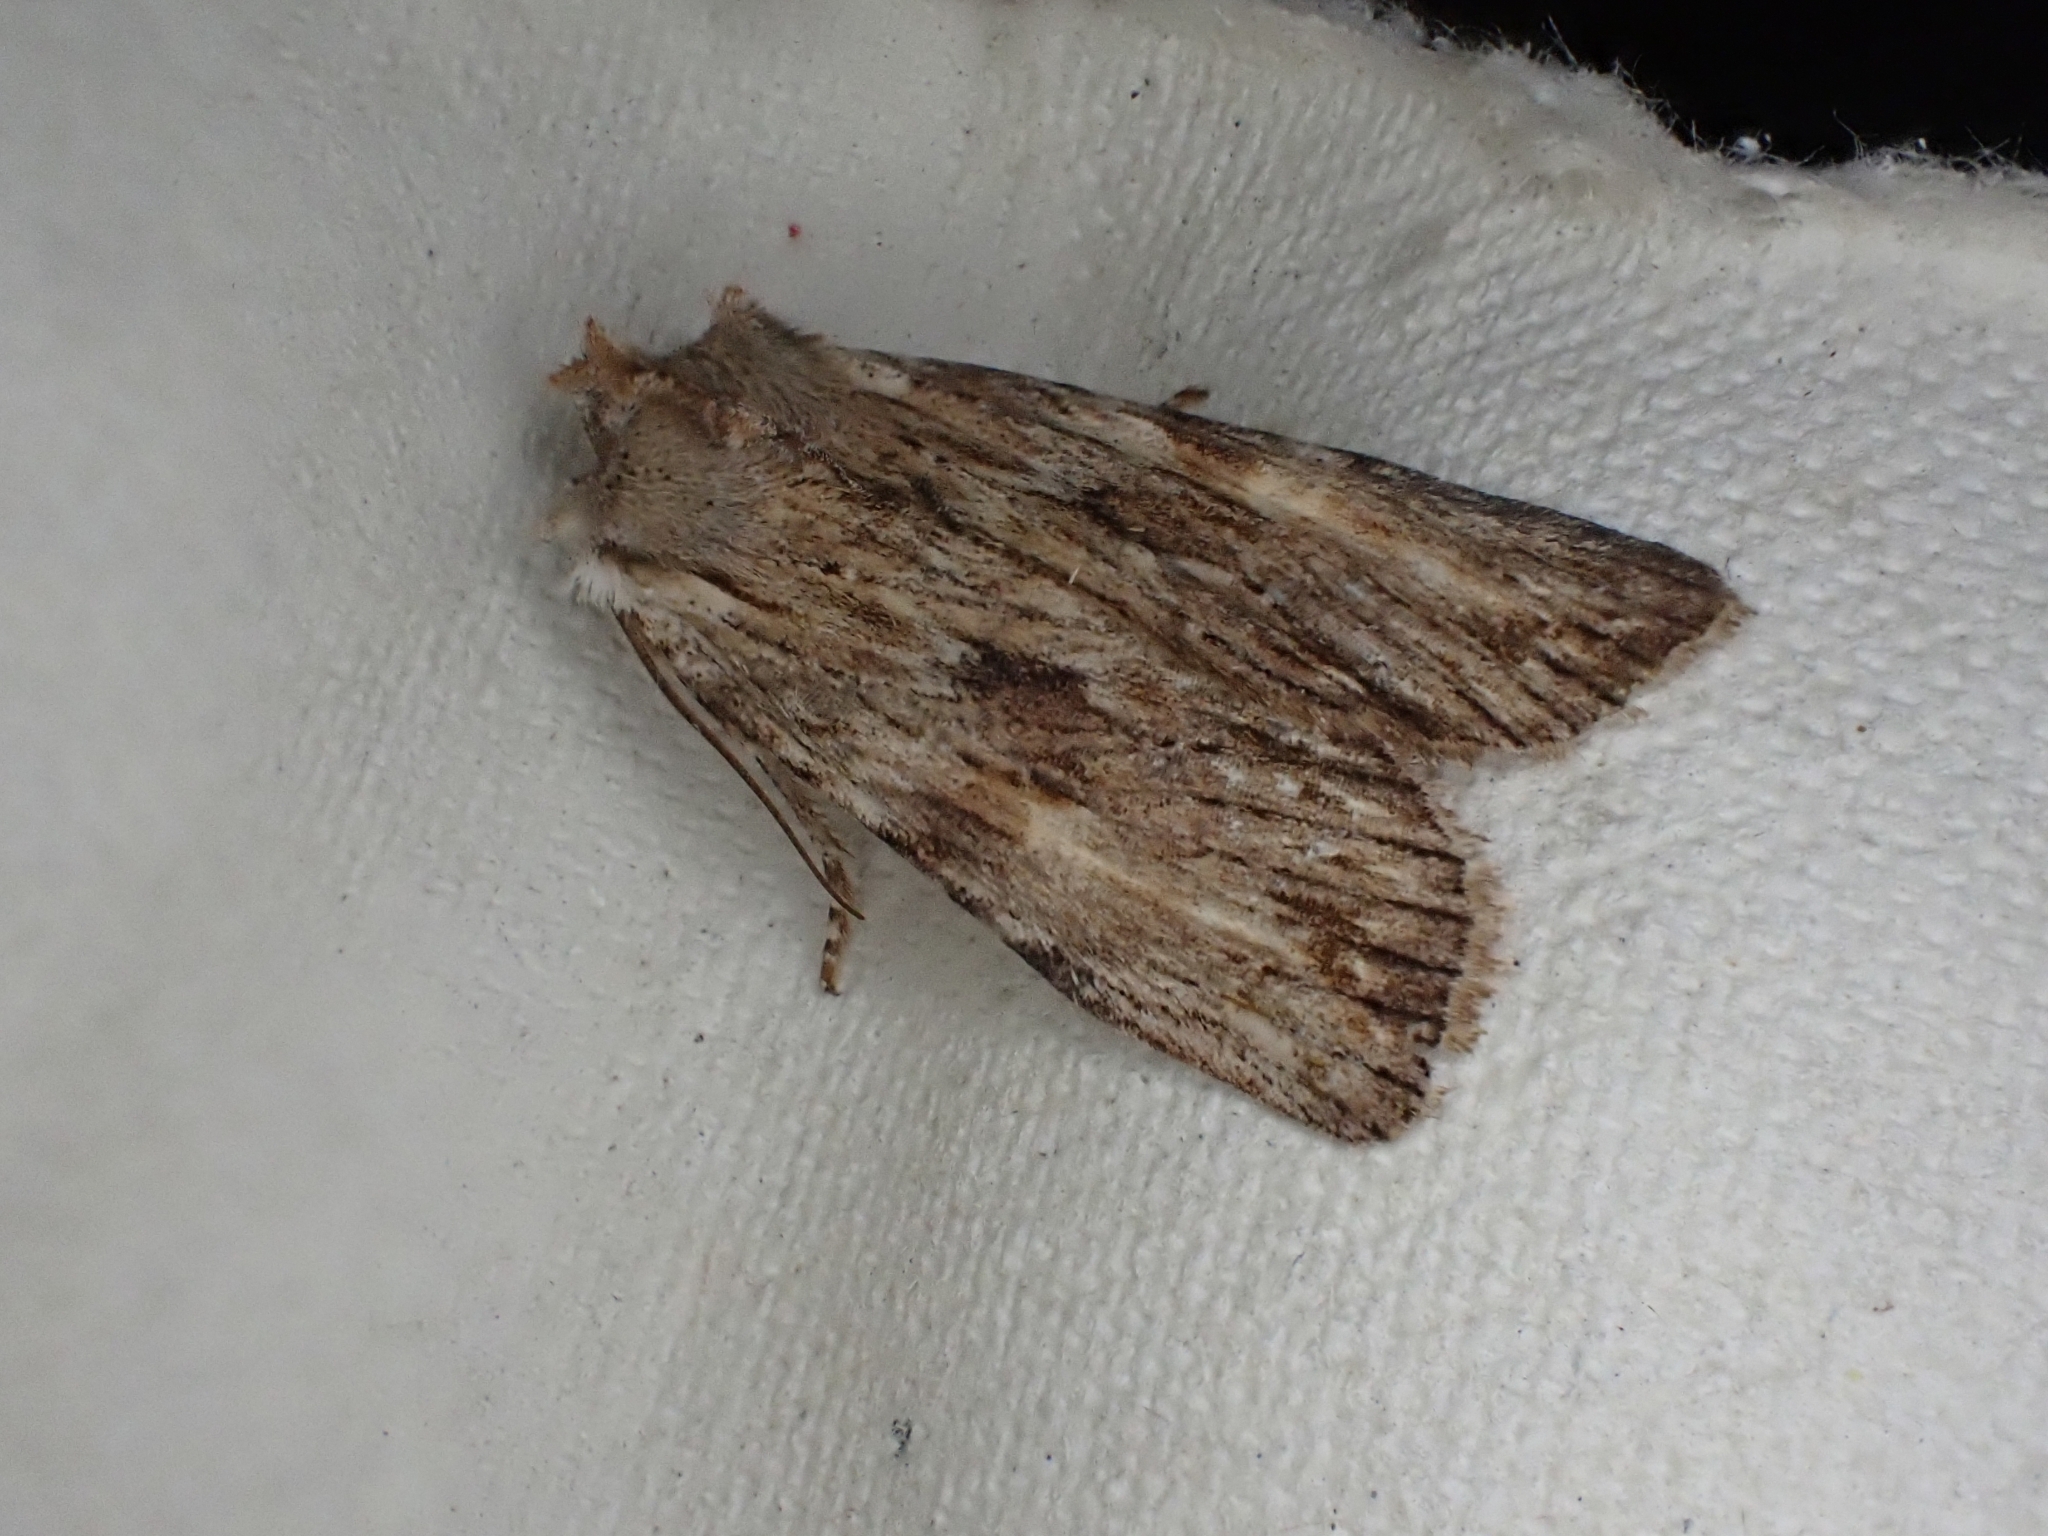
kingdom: Animalia
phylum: Arthropoda
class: Insecta
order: Lepidoptera
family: Noctuidae
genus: Lithophane
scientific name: Lithophane socia
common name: Pale pinion
